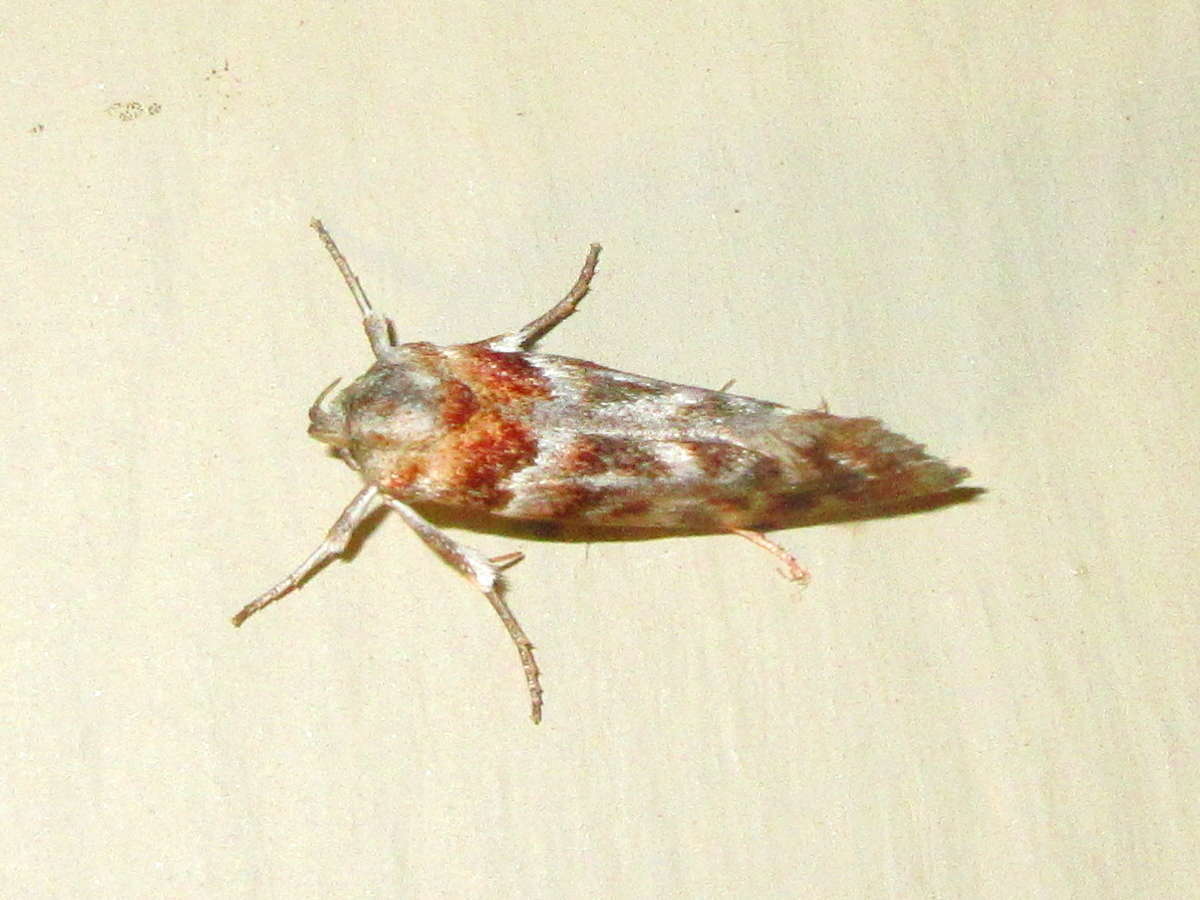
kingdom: Animalia
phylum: Arthropoda
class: Insecta
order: Lepidoptera
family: Oecophoridae
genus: Acmotoma
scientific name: Acmotoma magniferella
